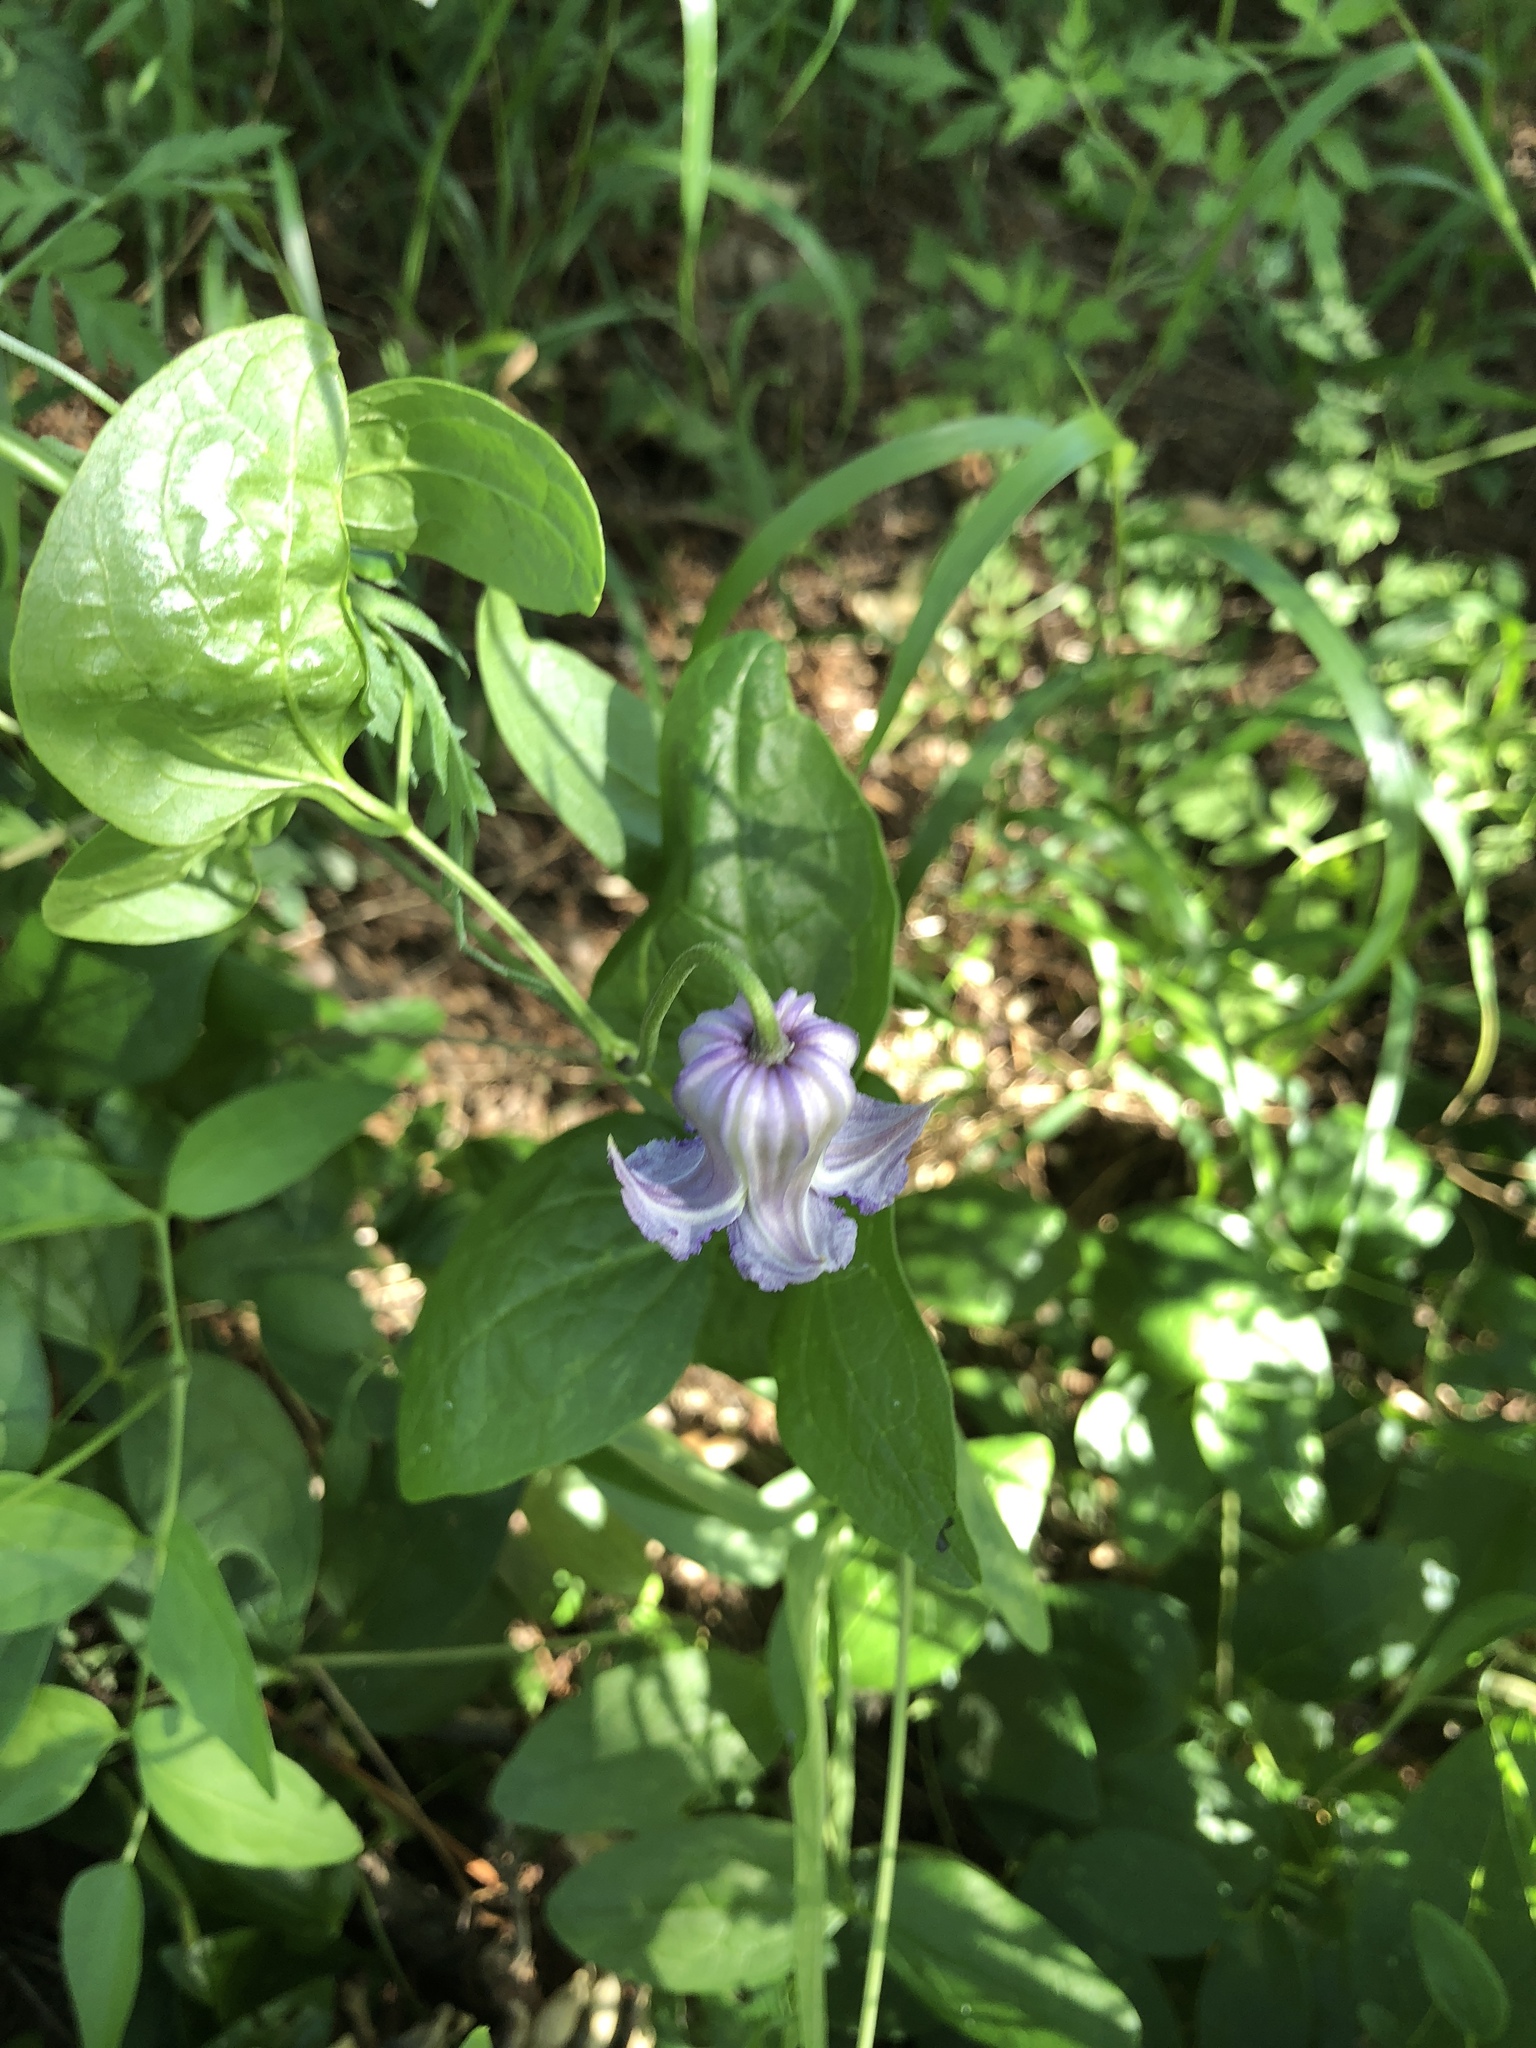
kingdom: Plantae
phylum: Tracheophyta
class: Magnoliopsida
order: Ranunculales
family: Ranunculaceae
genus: Clematis
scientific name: Clematis crispa
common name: Curly clematis
